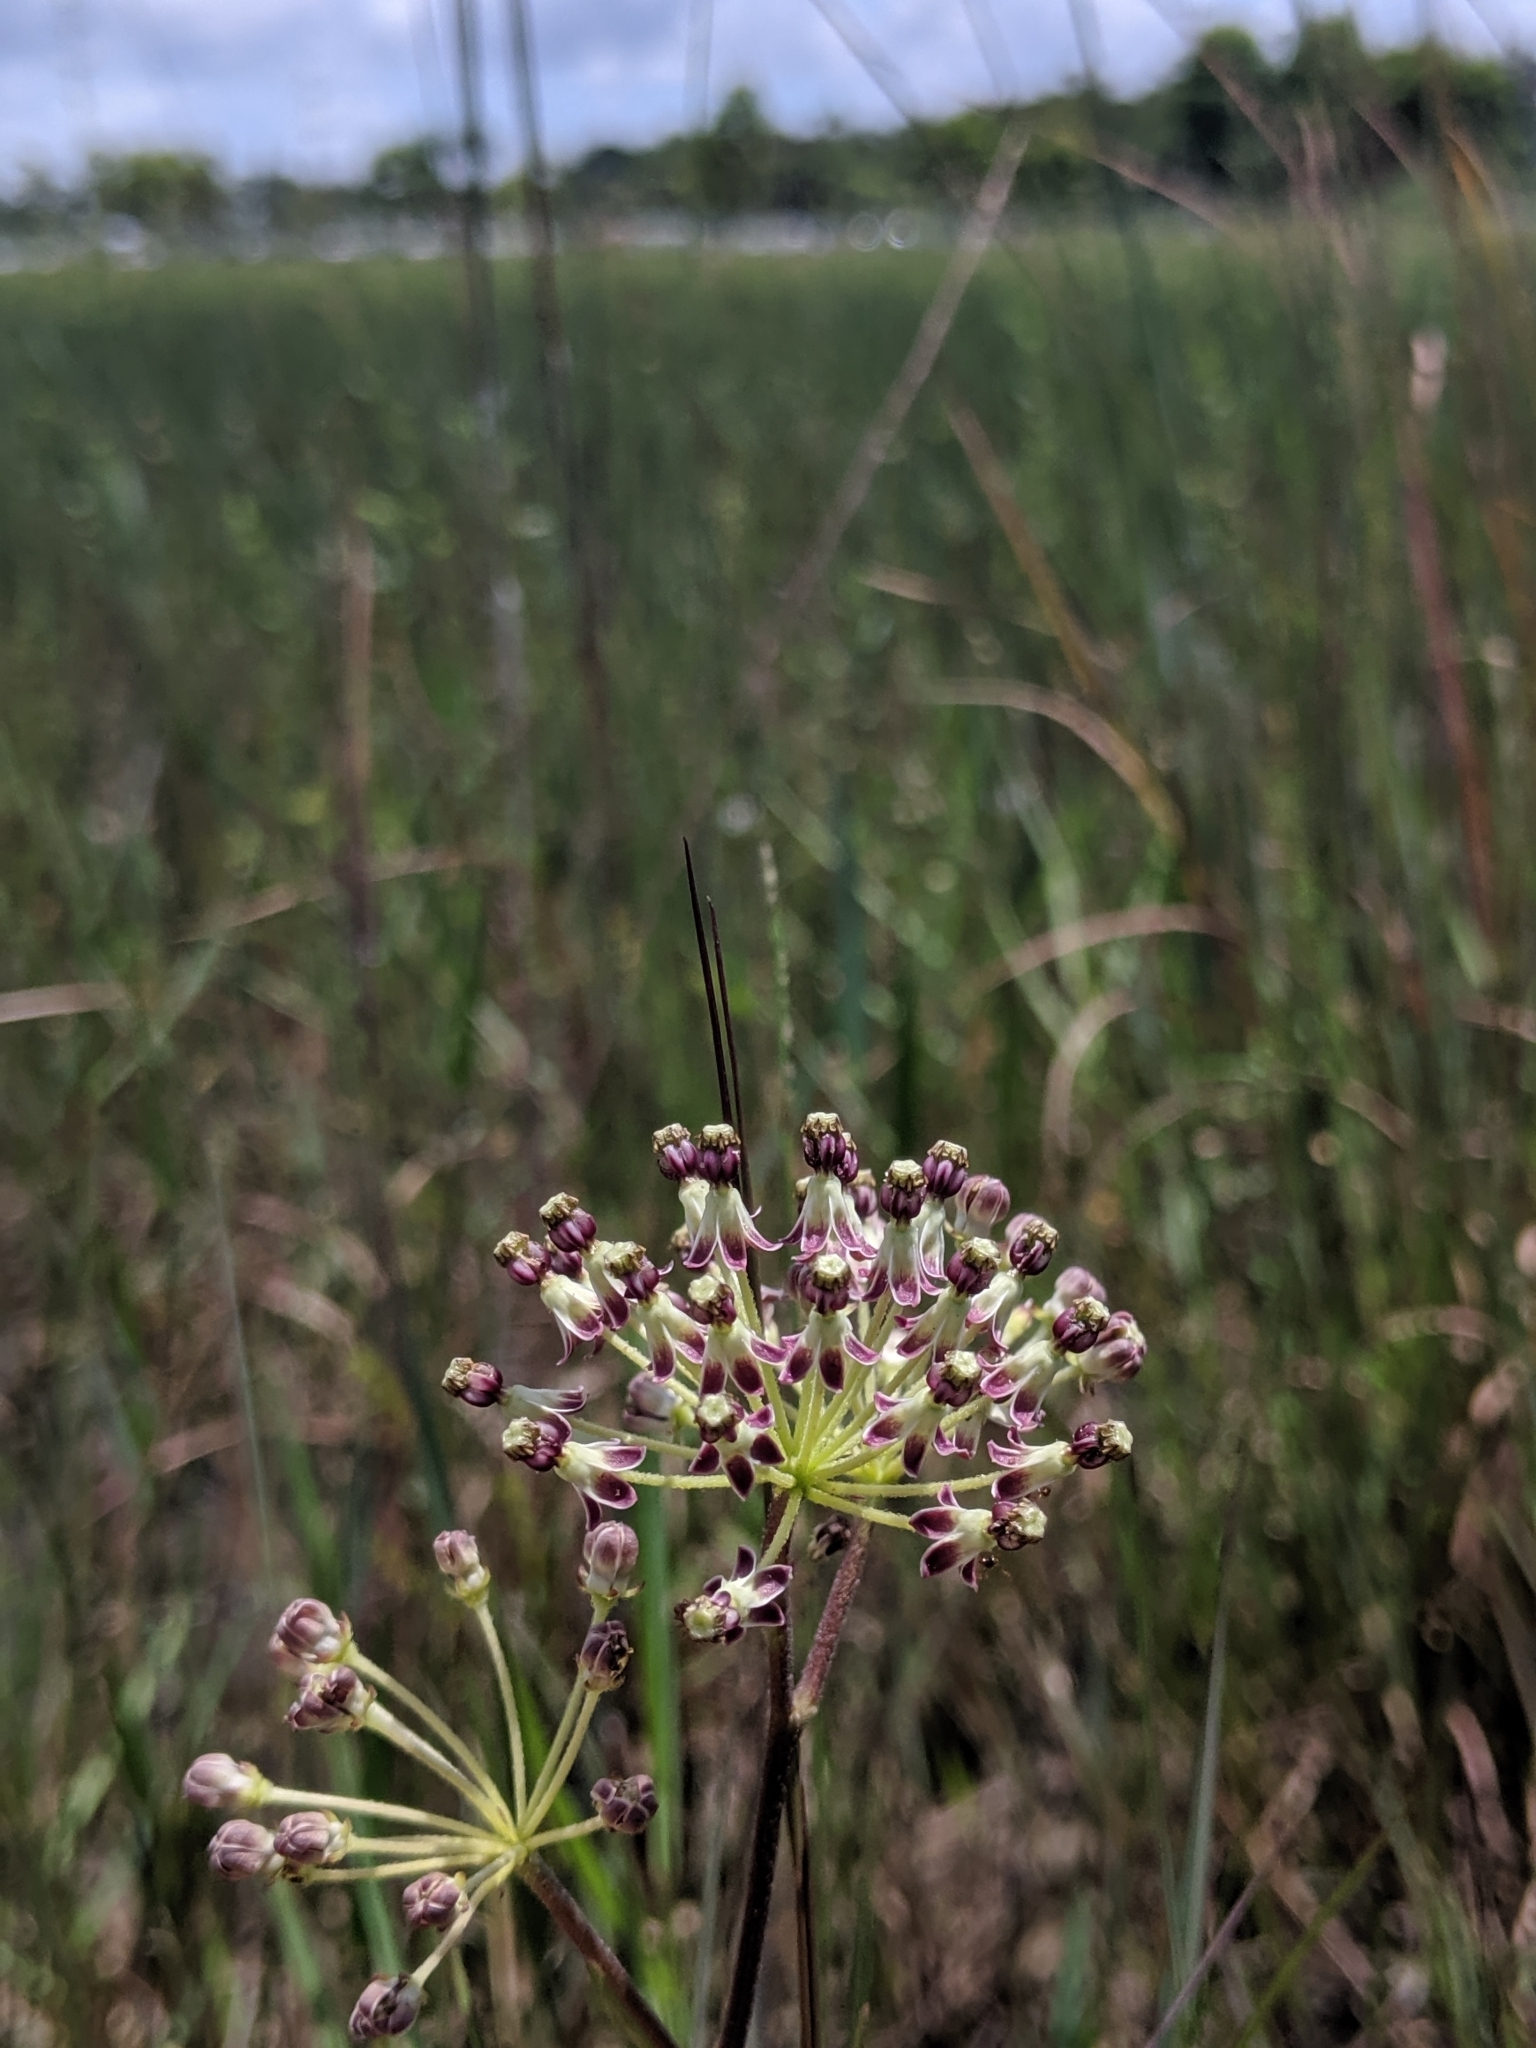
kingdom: Plantae
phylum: Tracheophyta
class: Magnoliopsida
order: Gentianales
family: Apocynaceae
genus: Asclepias
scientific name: Asclepias longifolia
